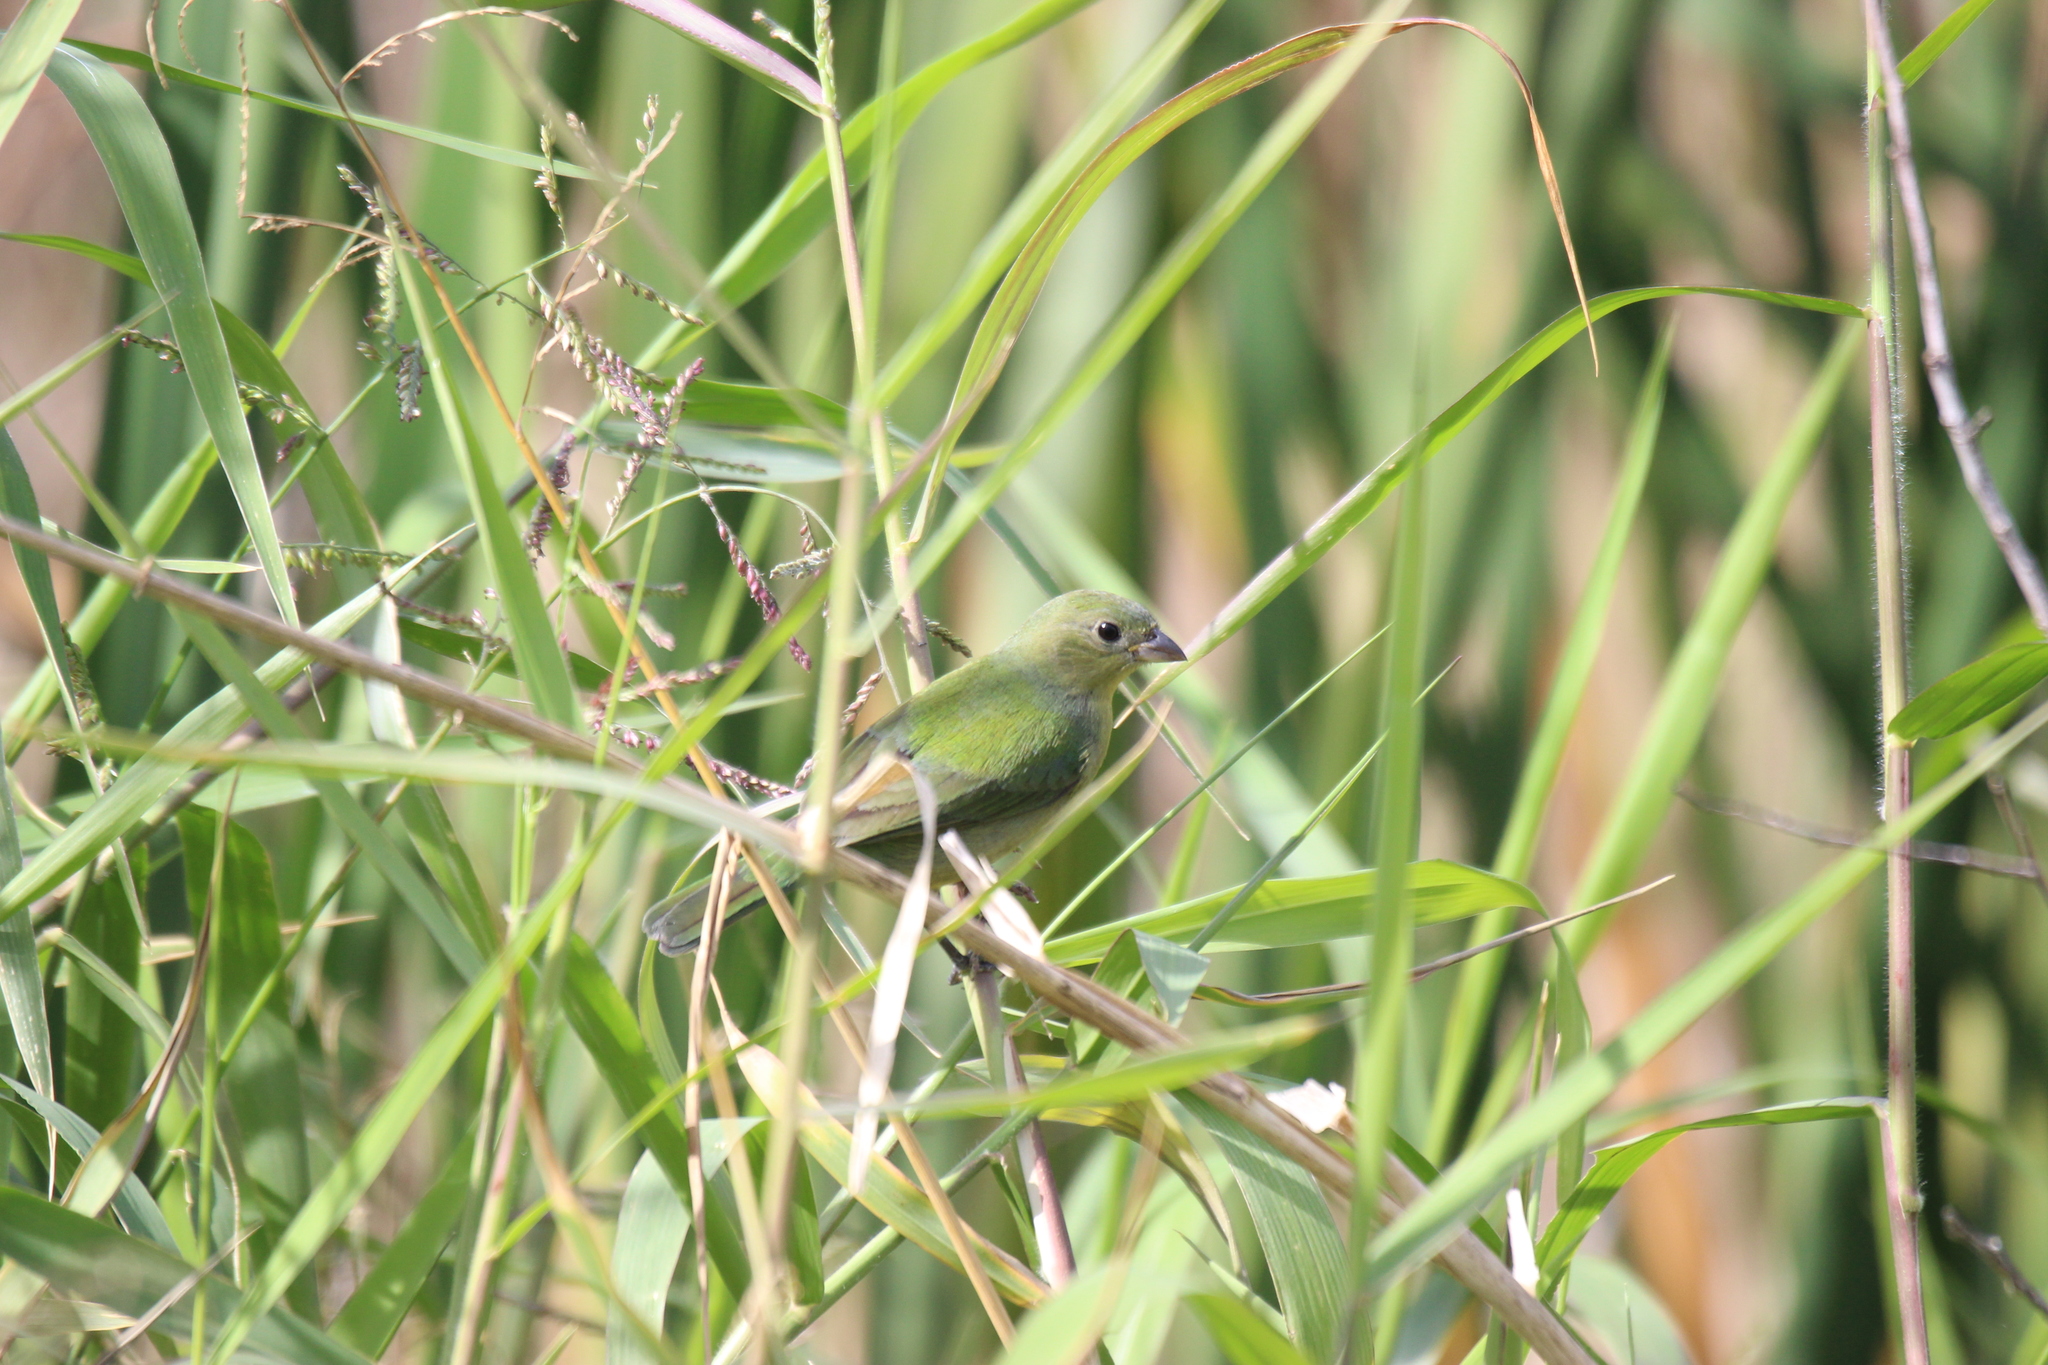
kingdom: Animalia
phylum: Chordata
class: Aves
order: Passeriformes
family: Cardinalidae
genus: Passerina
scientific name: Passerina ciris
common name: Painted bunting
